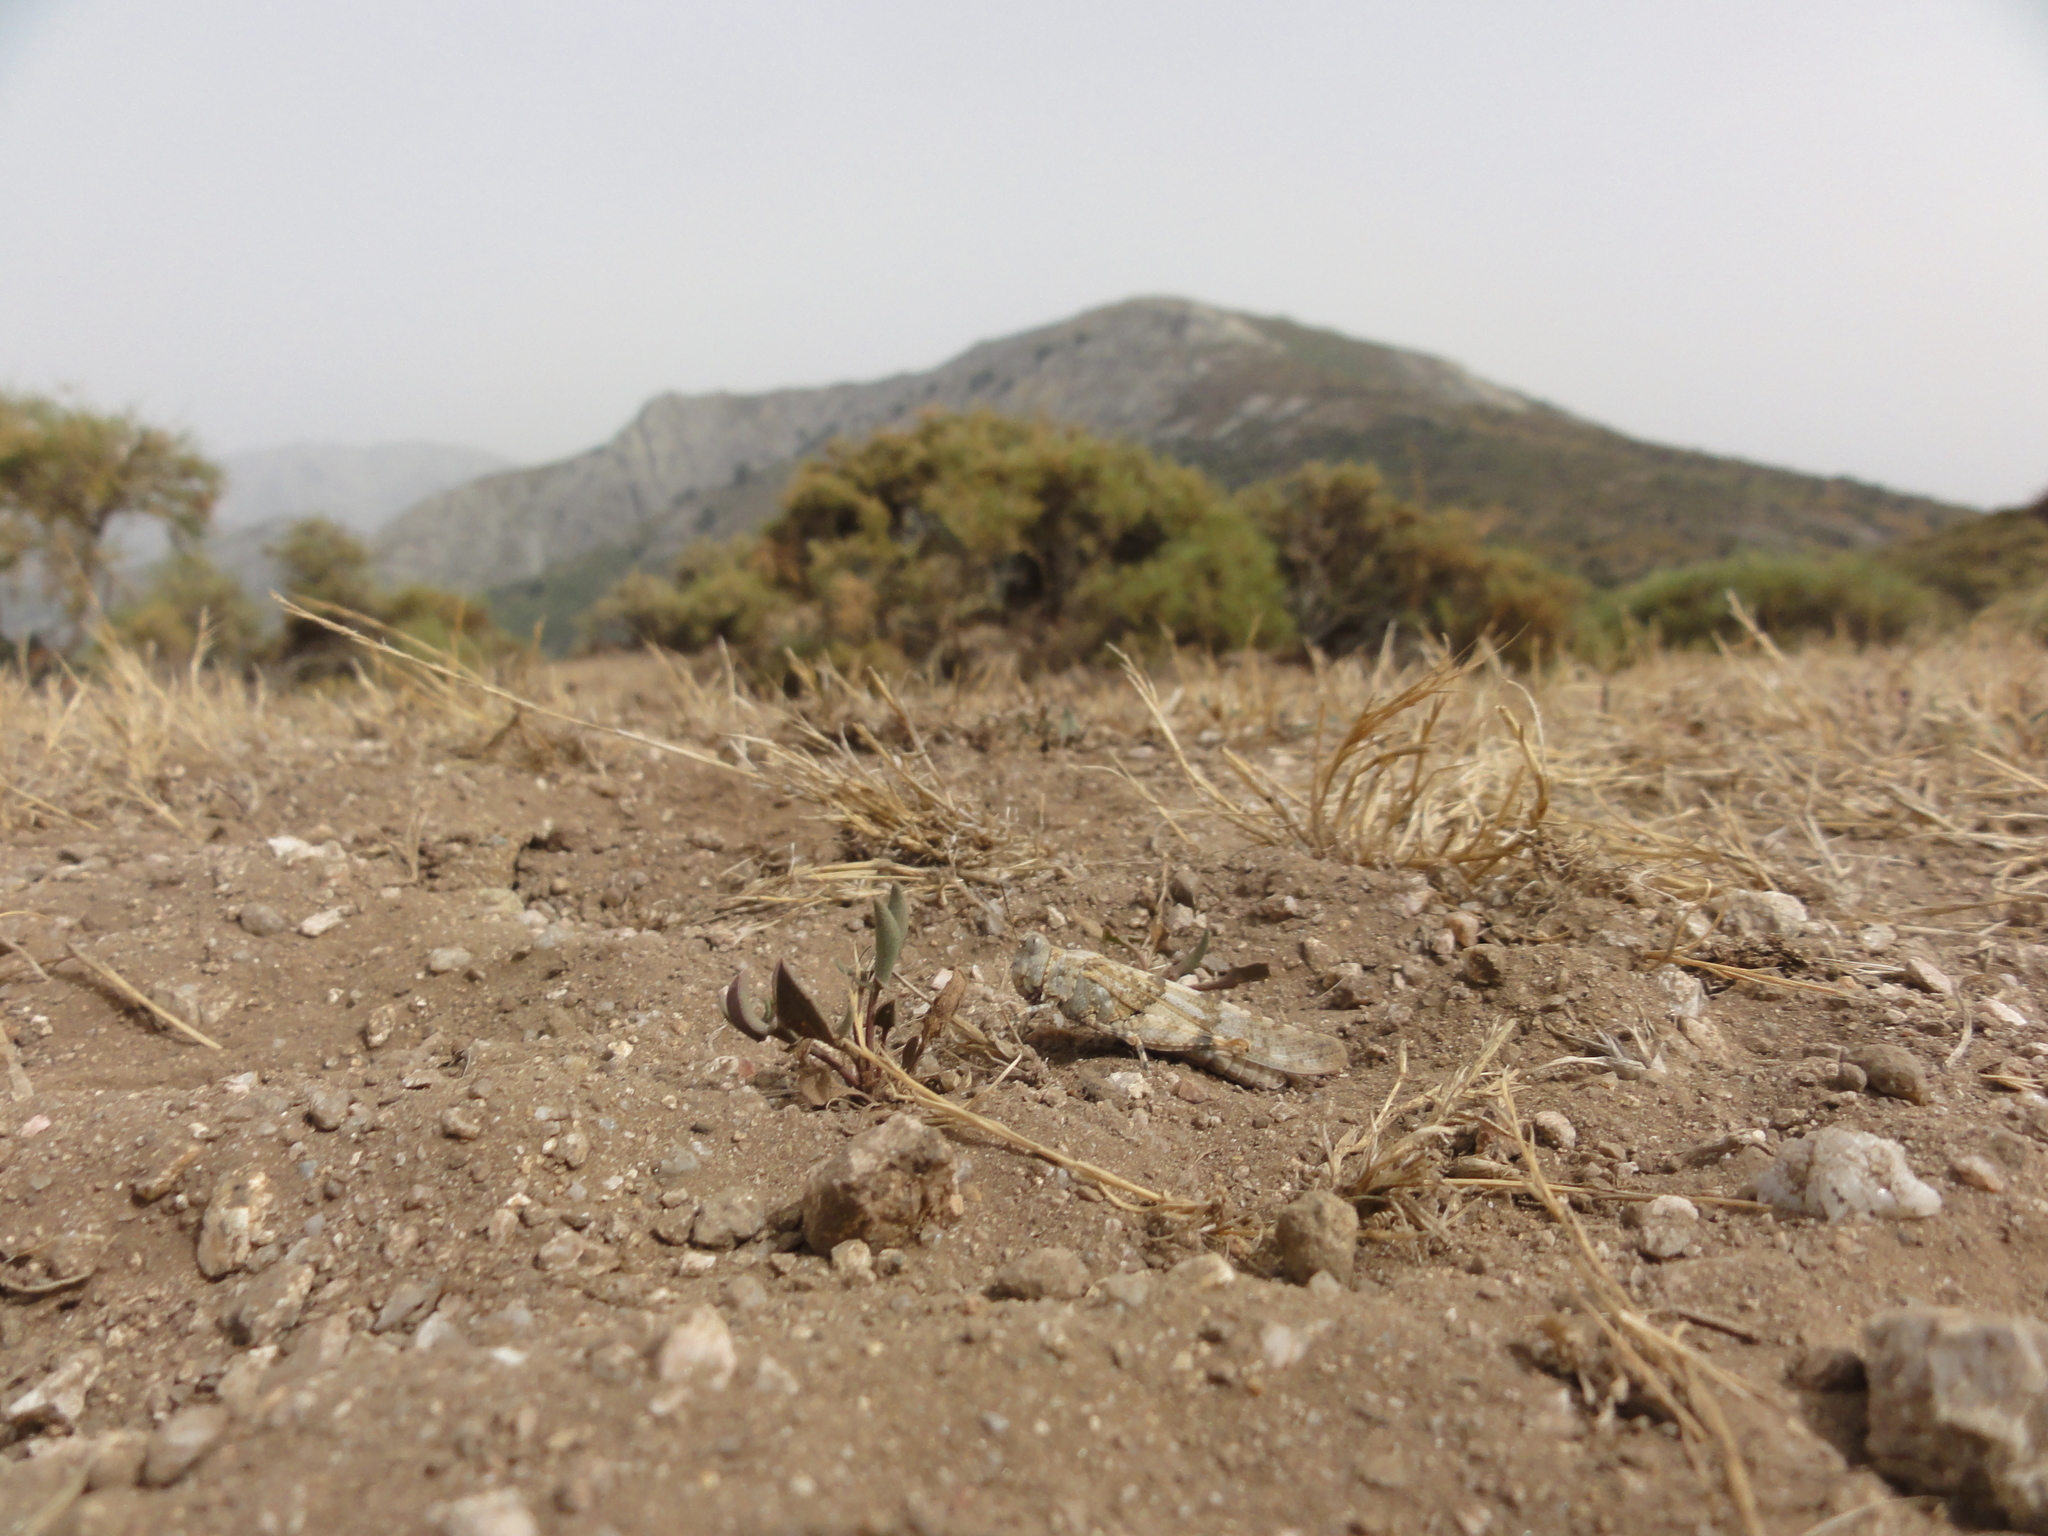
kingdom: Animalia
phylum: Arthropoda
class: Insecta
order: Orthoptera
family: Acrididae
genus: Sphingonotus
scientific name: Sphingonotus corsicus
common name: Corsican sand grasshopper
